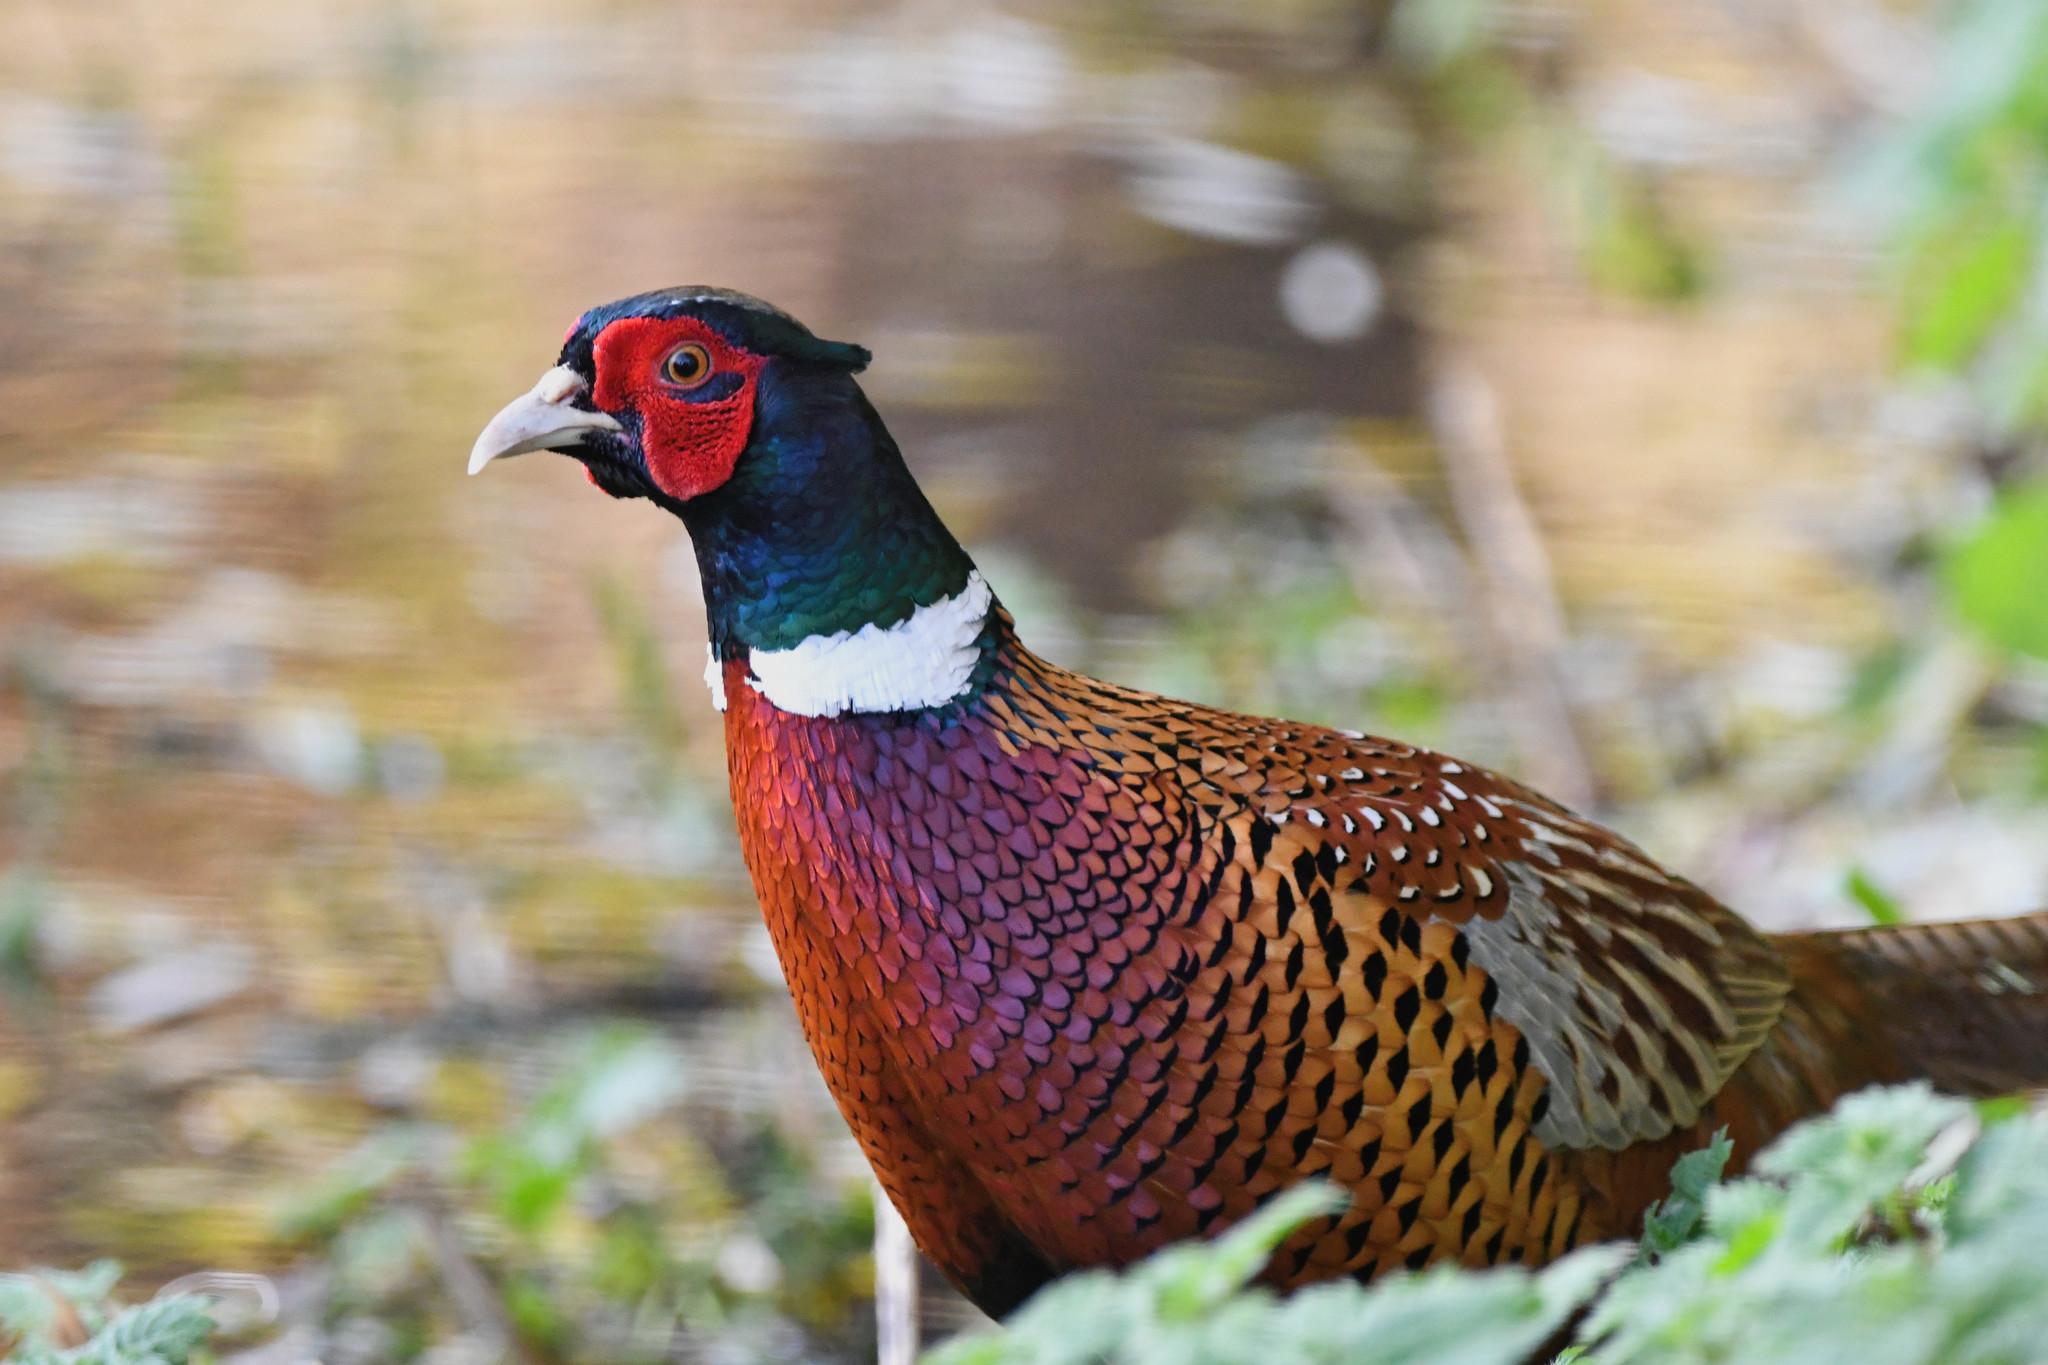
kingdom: Animalia
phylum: Chordata
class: Aves
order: Galliformes
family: Phasianidae
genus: Phasianus
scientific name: Phasianus colchicus
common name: Common pheasant
